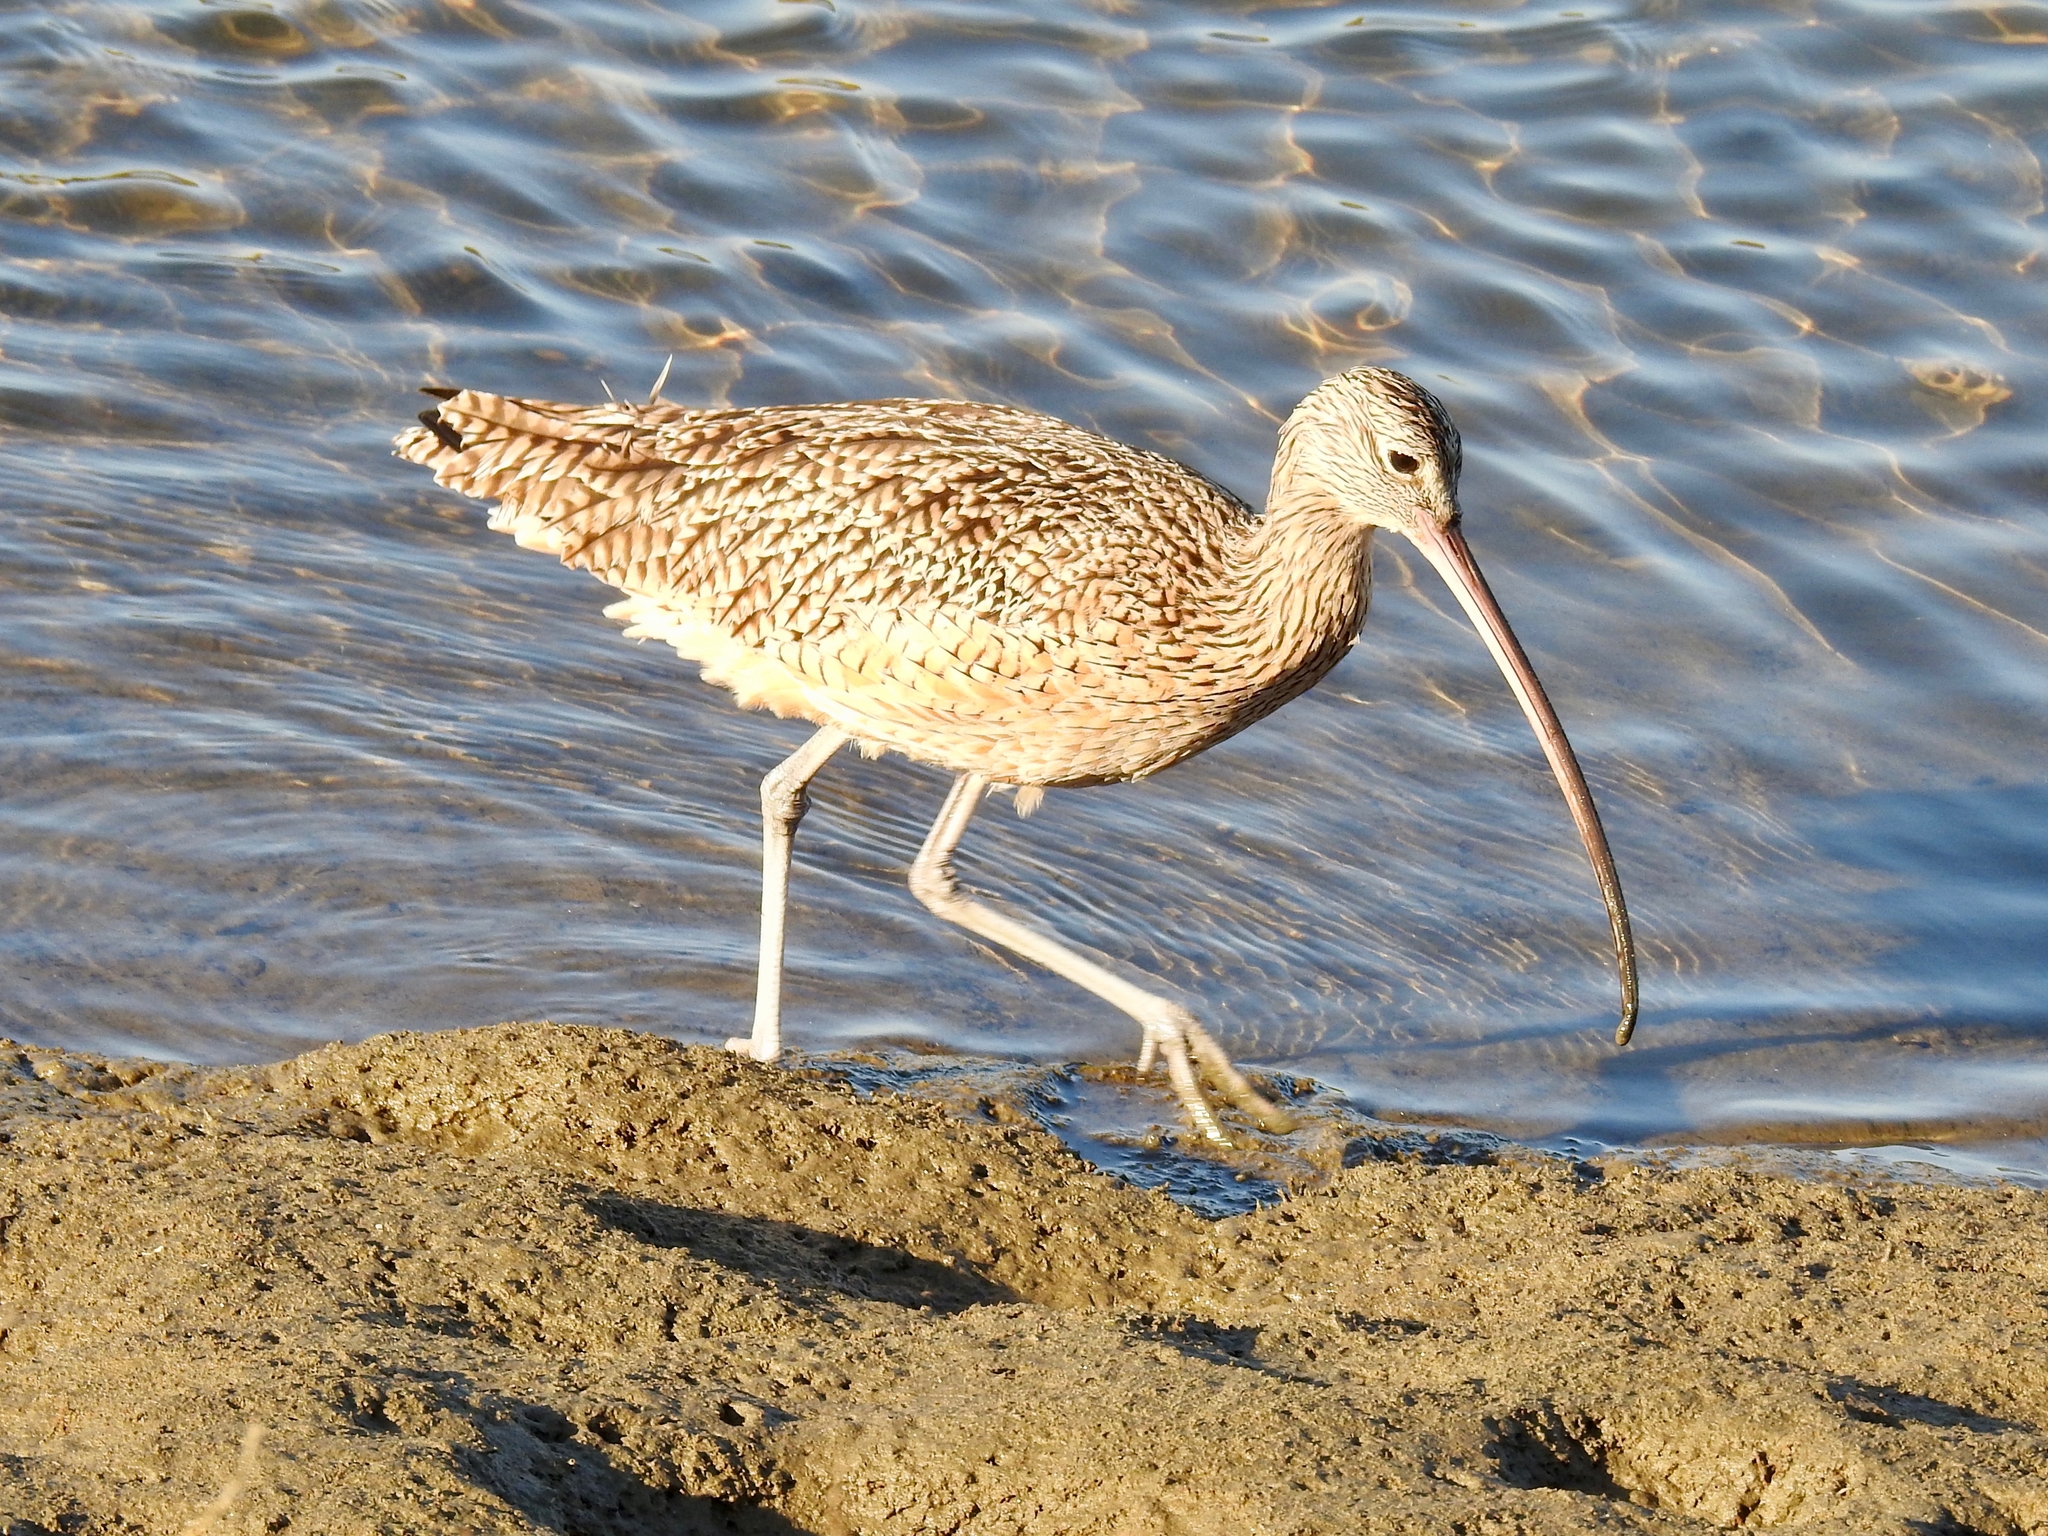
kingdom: Animalia
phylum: Chordata
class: Aves
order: Charadriiformes
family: Scolopacidae
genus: Numenius
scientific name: Numenius americanus
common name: Long-billed curlew
